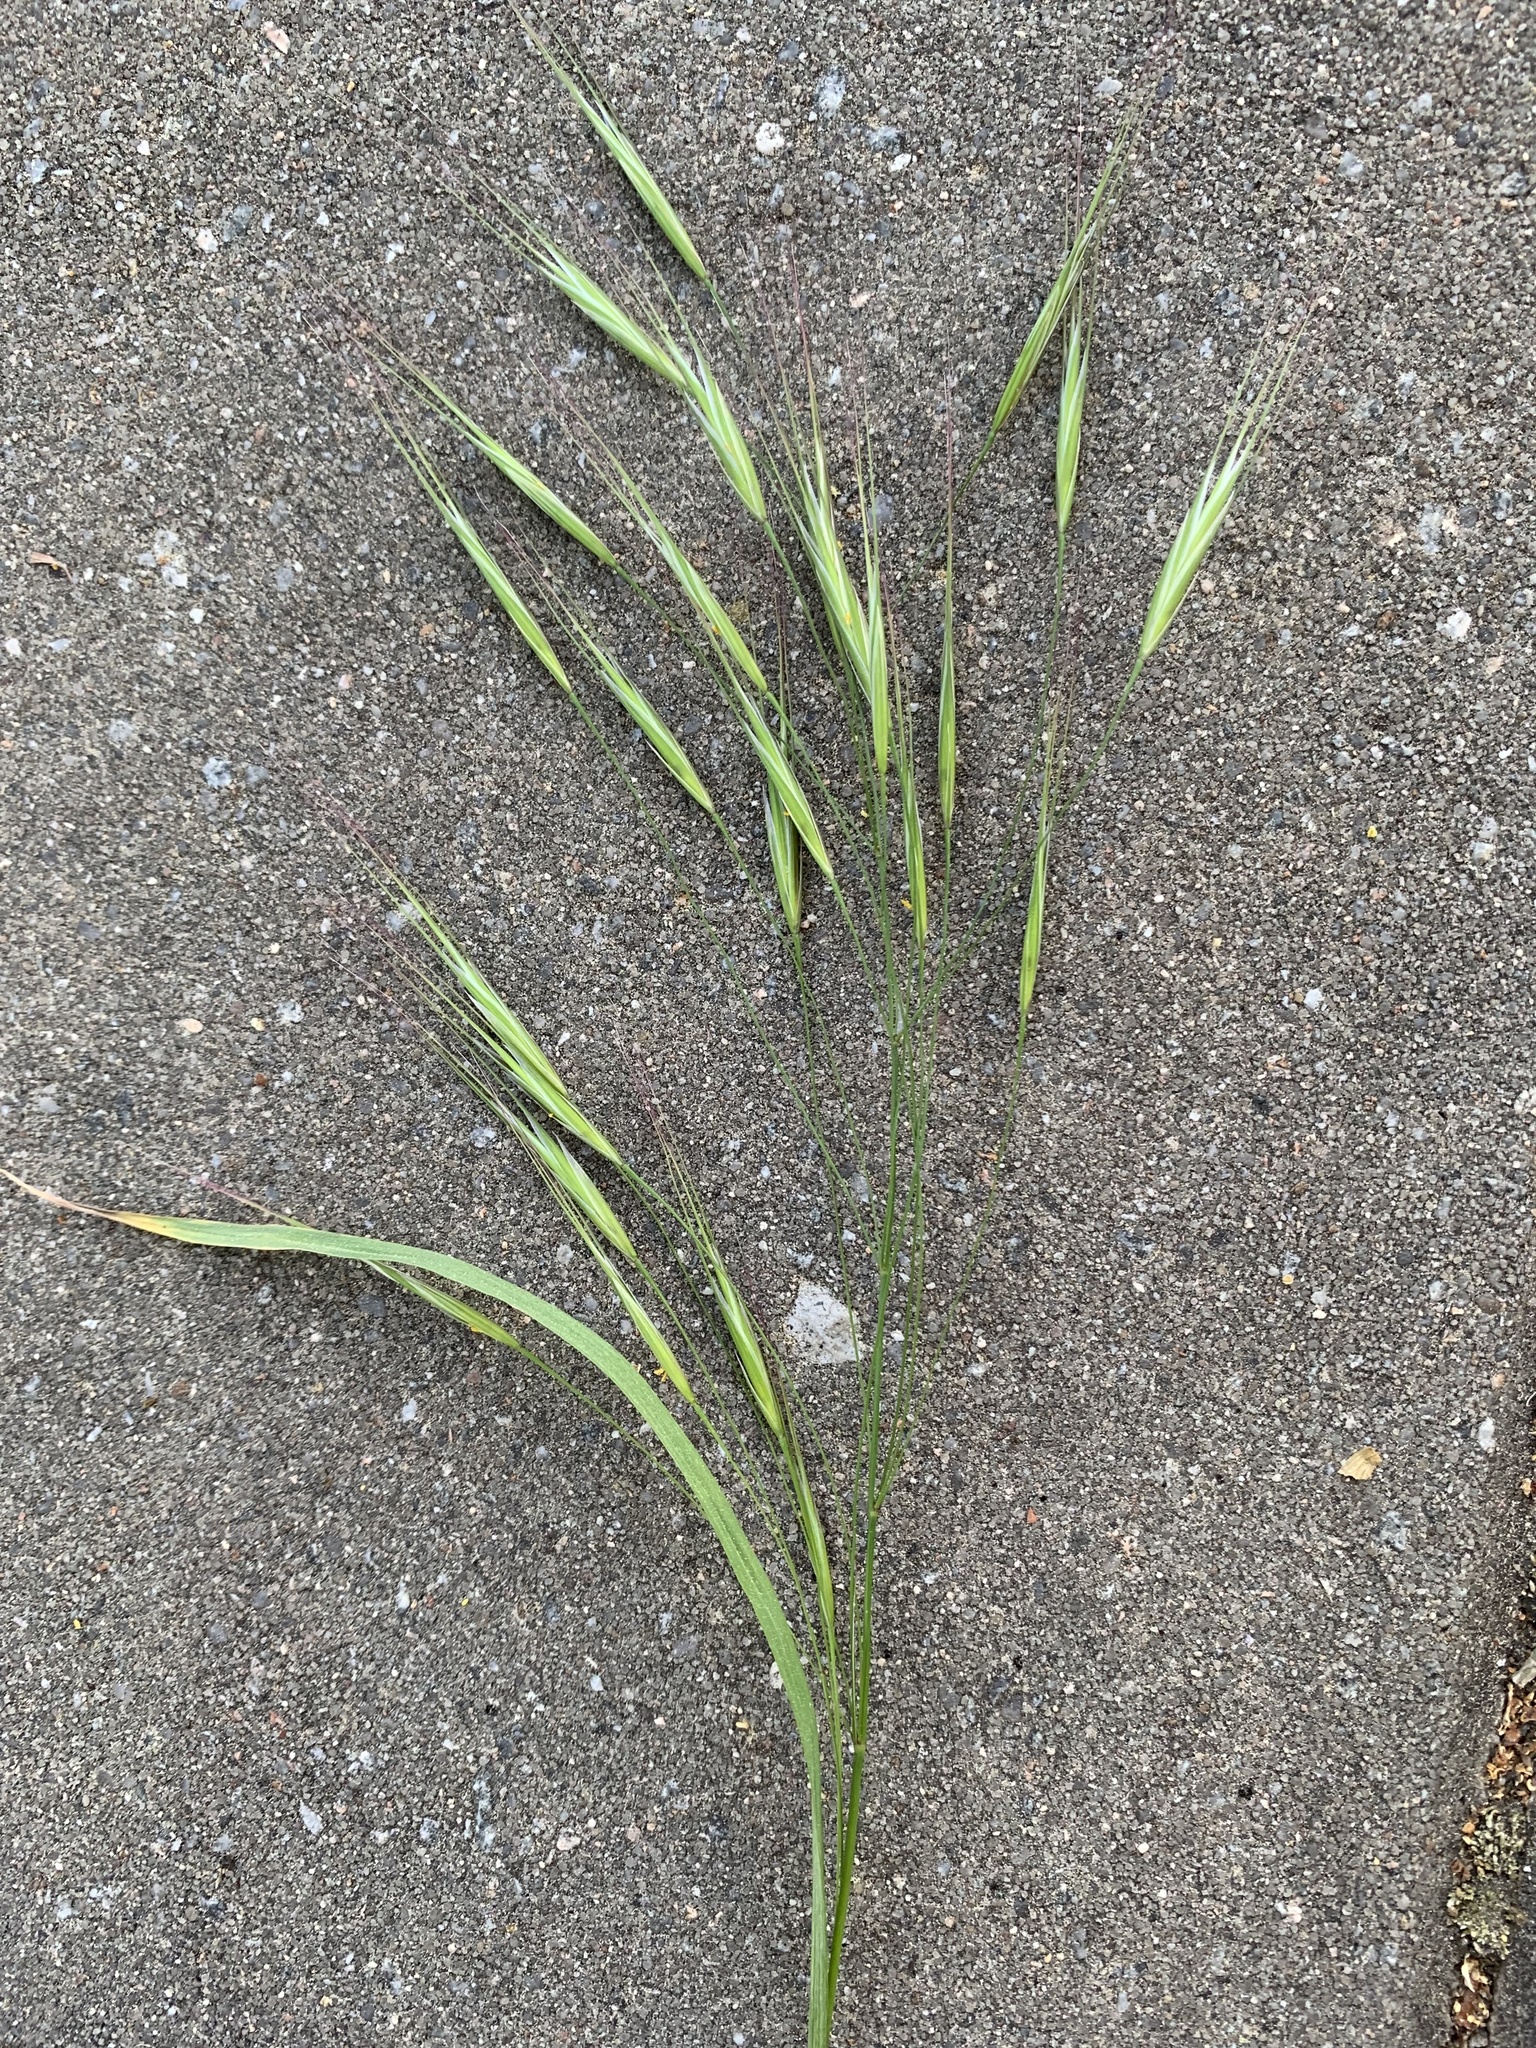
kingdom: Plantae
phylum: Tracheophyta
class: Liliopsida
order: Poales
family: Poaceae
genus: Bromus
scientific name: Bromus sterilis
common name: Poverty brome
